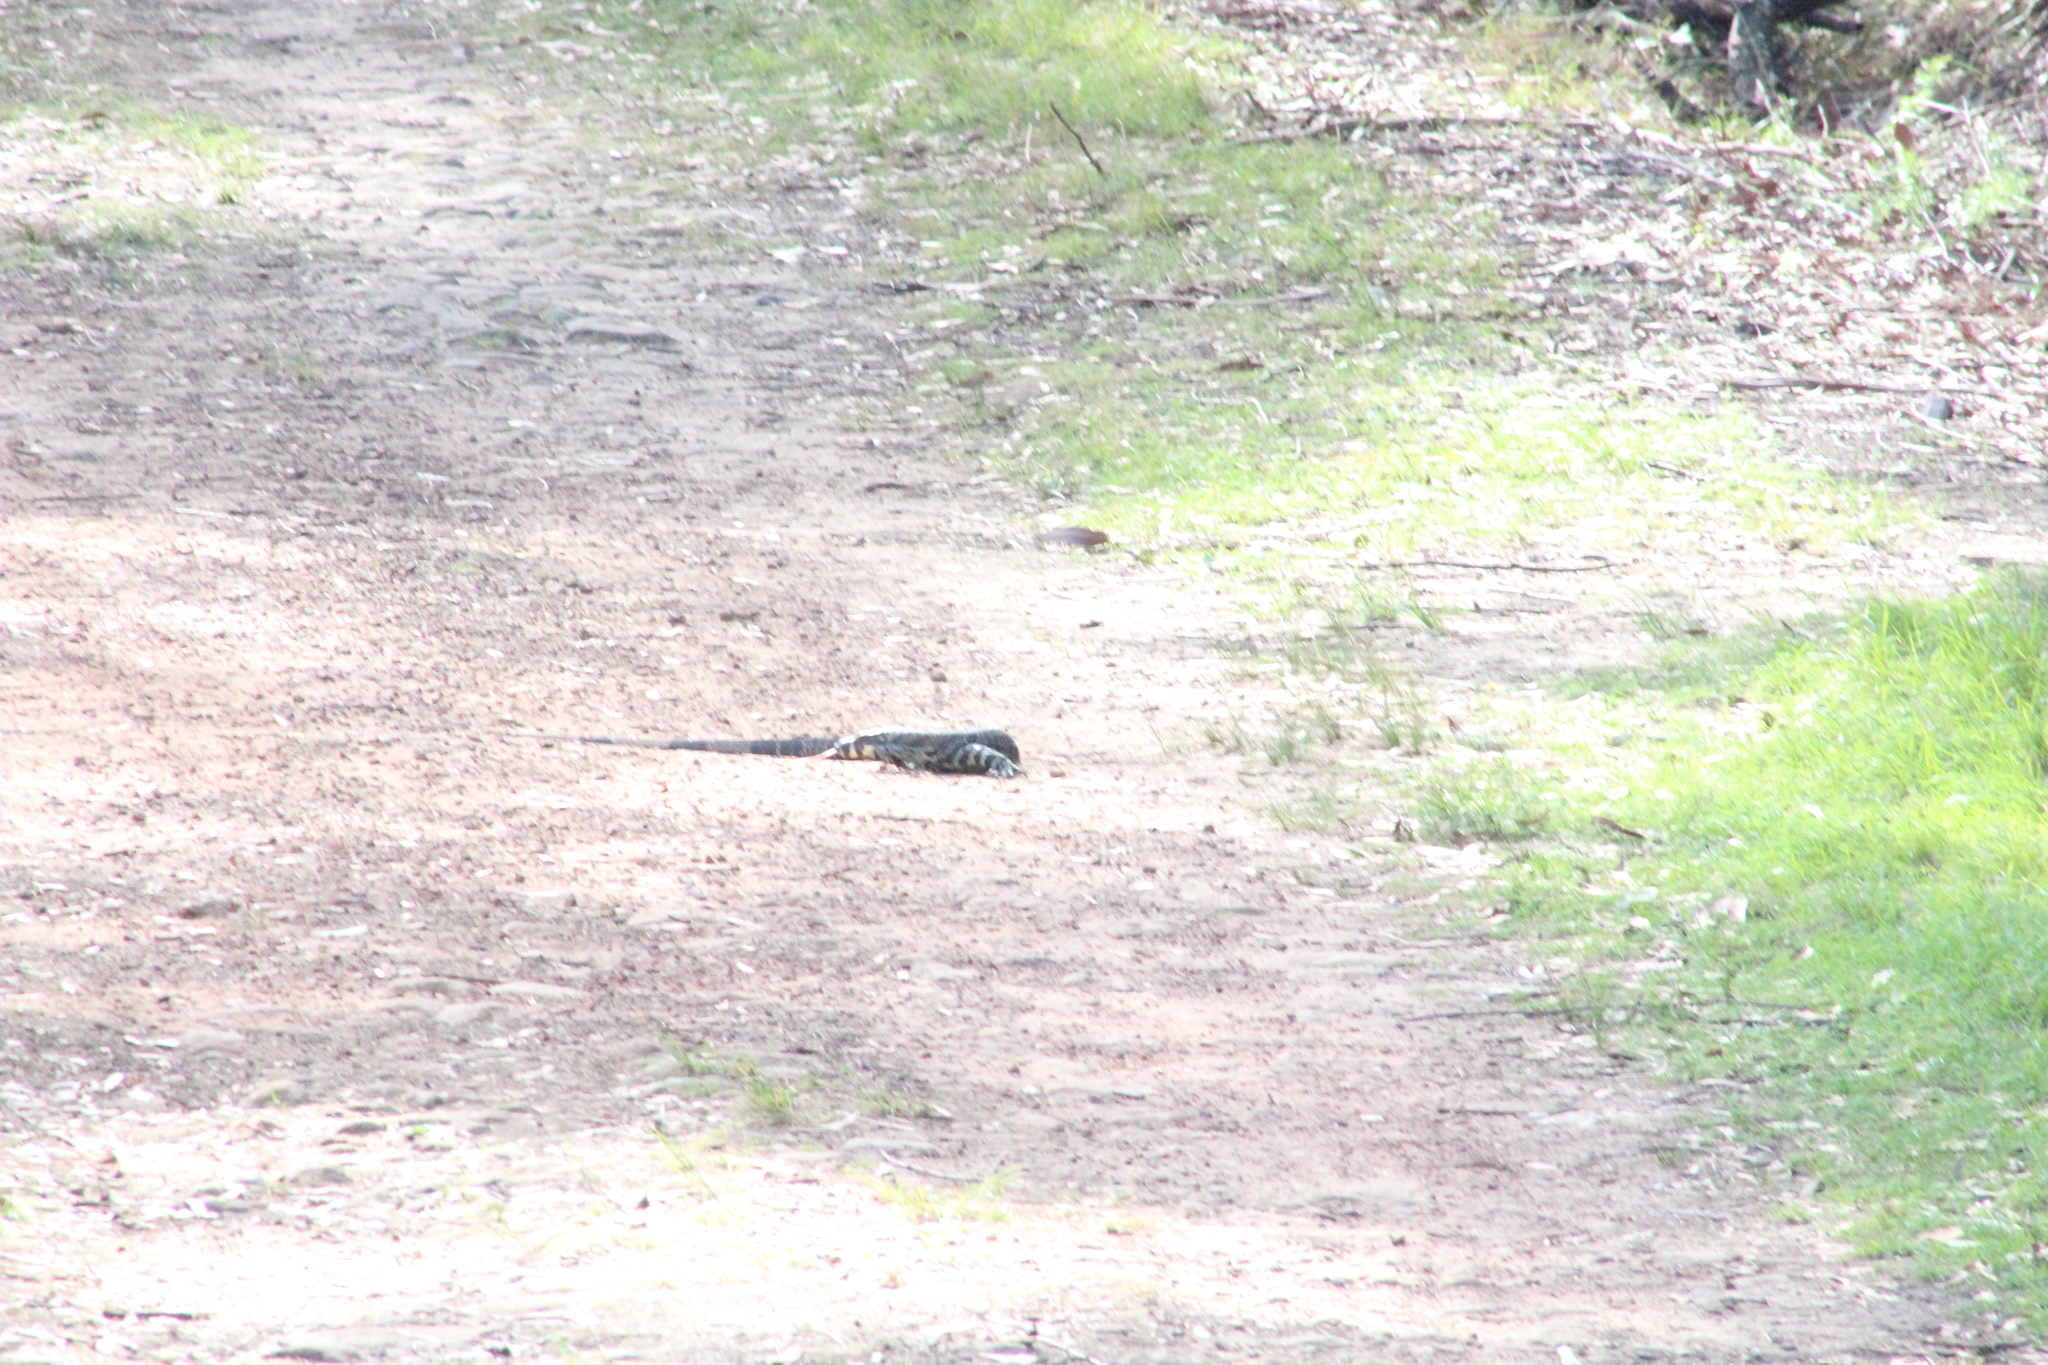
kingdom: Animalia
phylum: Chordata
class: Squamata
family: Varanidae
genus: Varanus
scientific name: Varanus varius
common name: Lace monitor
